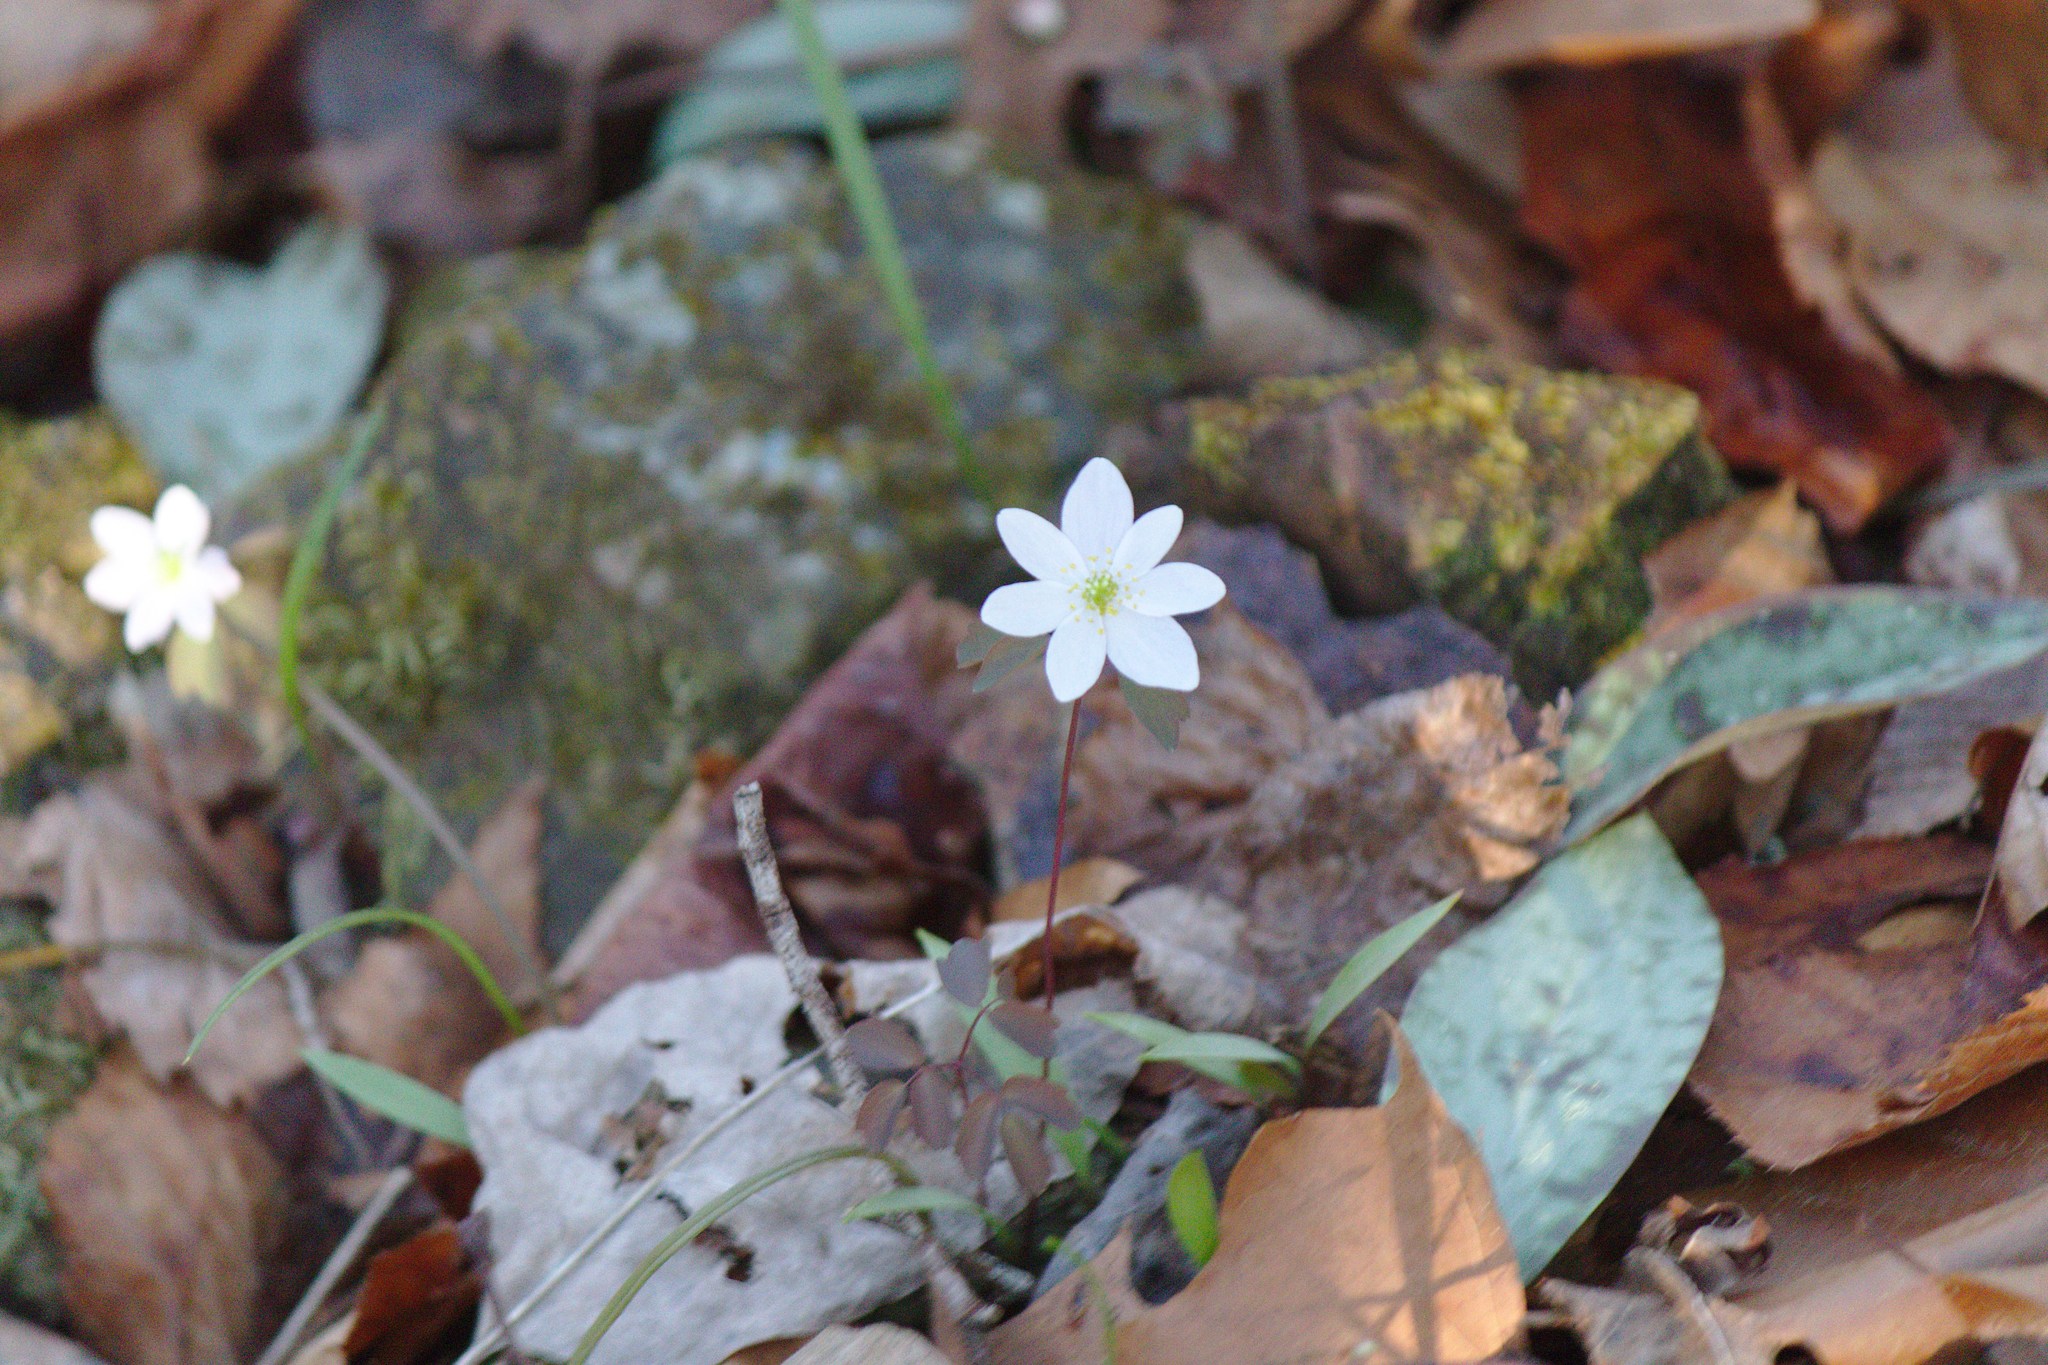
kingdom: Plantae
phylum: Tracheophyta
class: Magnoliopsida
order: Ranunculales
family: Ranunculaceae
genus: Thalictrum
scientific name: Thalictrum thalictroides
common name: Rue-anemone
